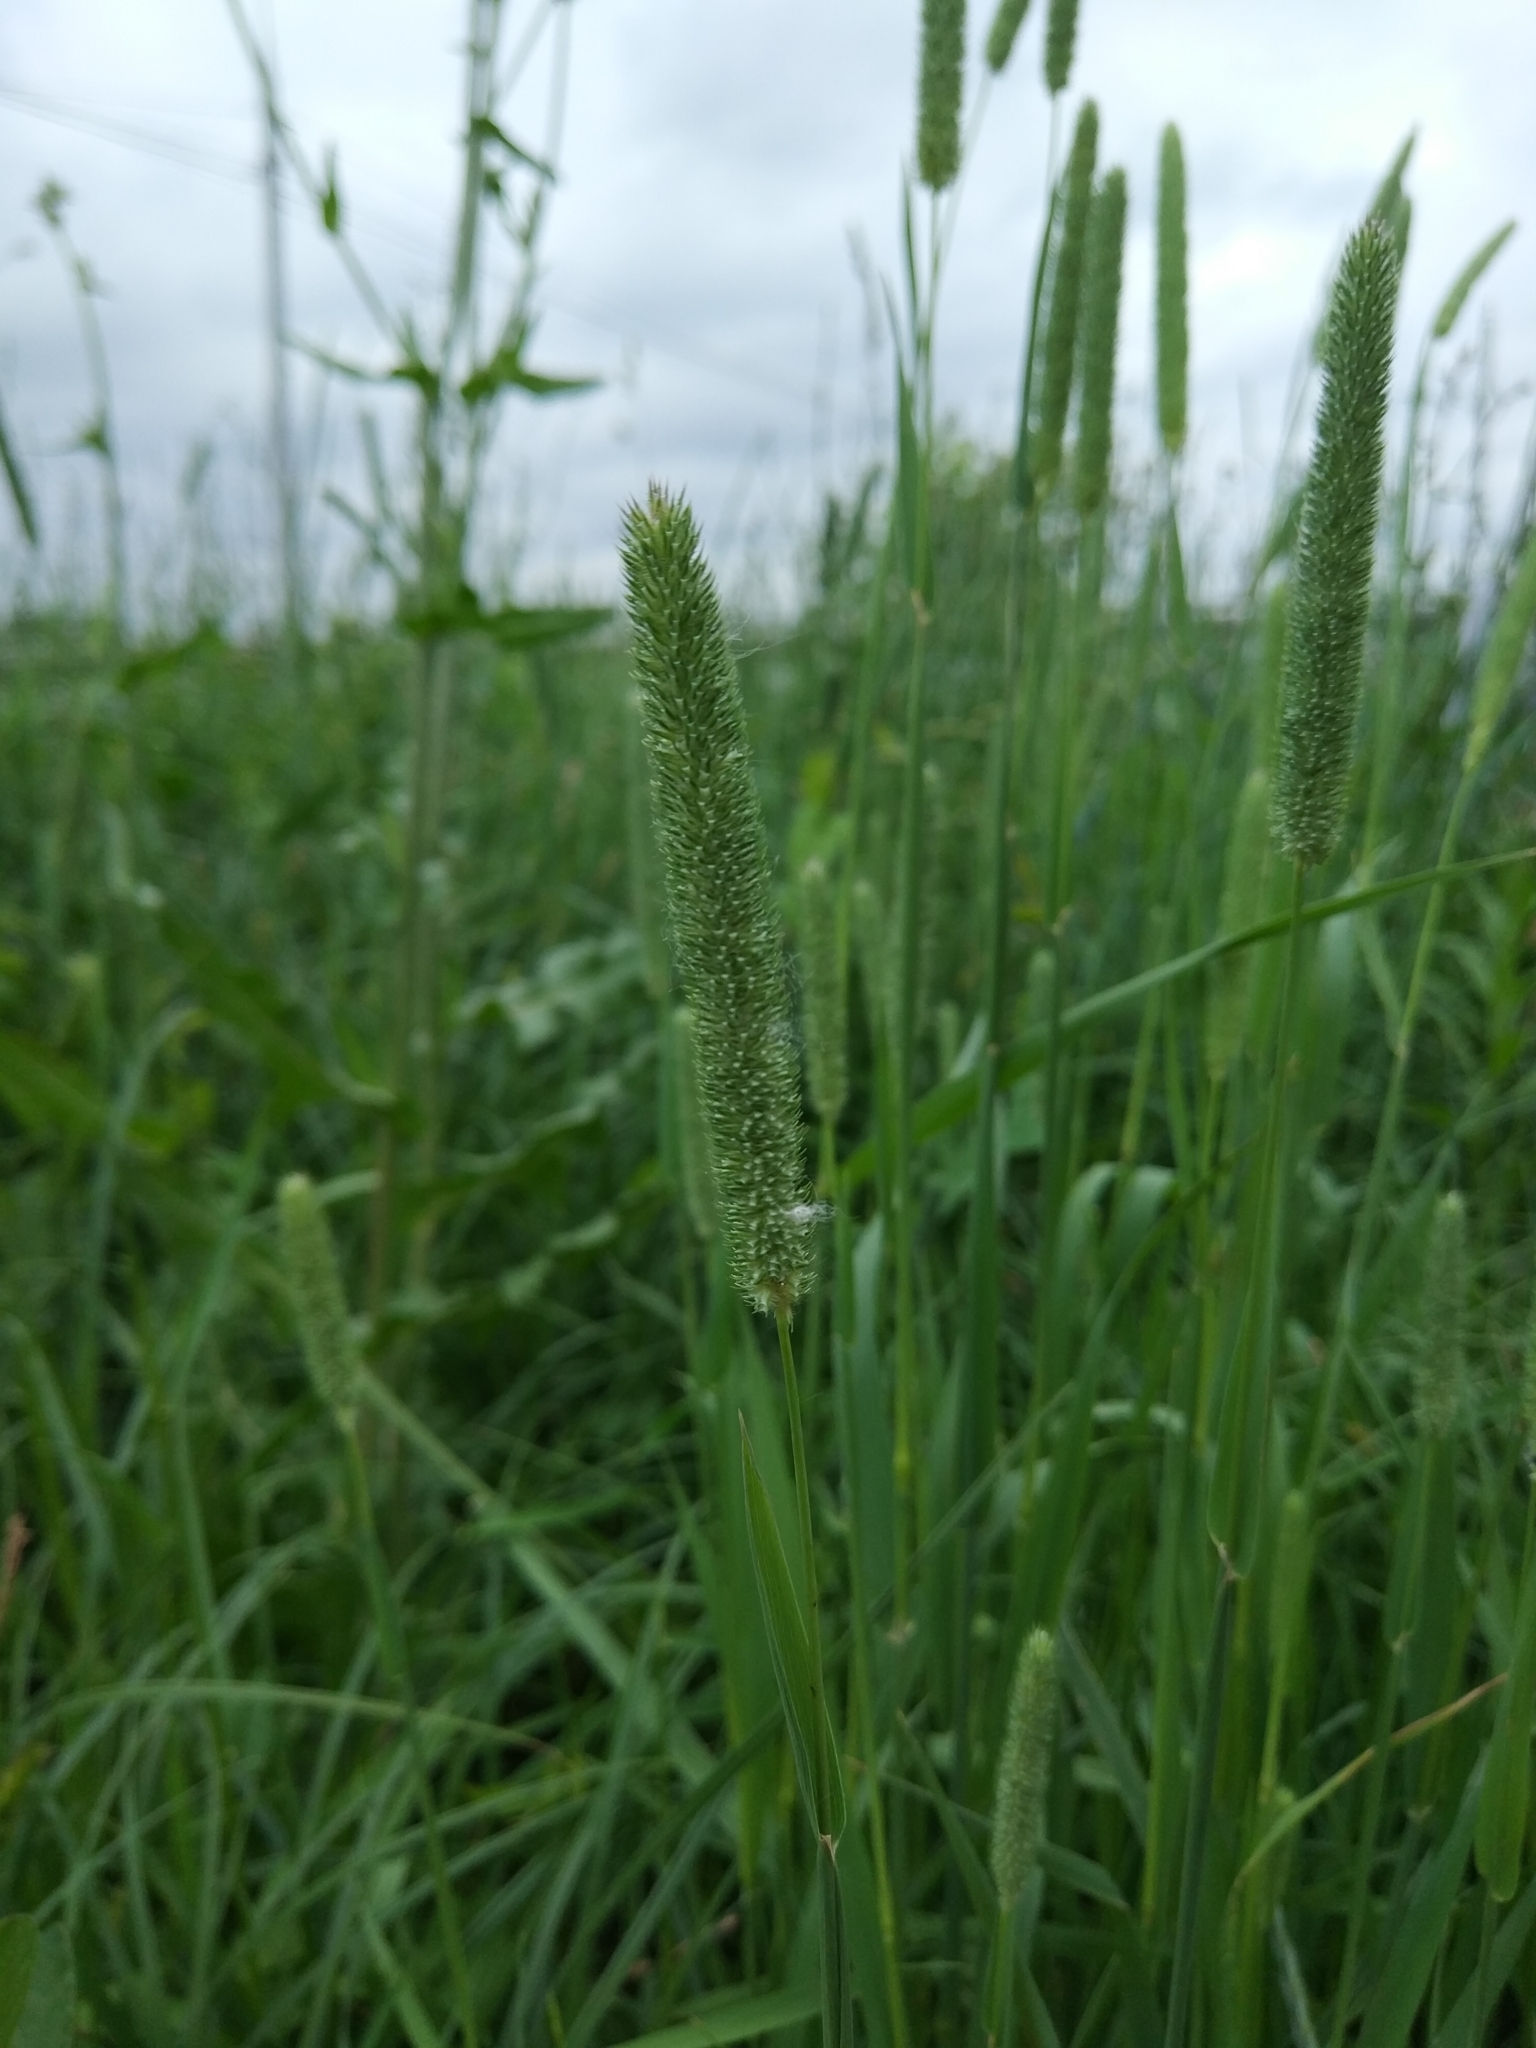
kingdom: Plantae
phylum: Tracheophyta
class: Liliopsida
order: Poales
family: Poaceae
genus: Phleum
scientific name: Phleum pratense
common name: Timothy grass
